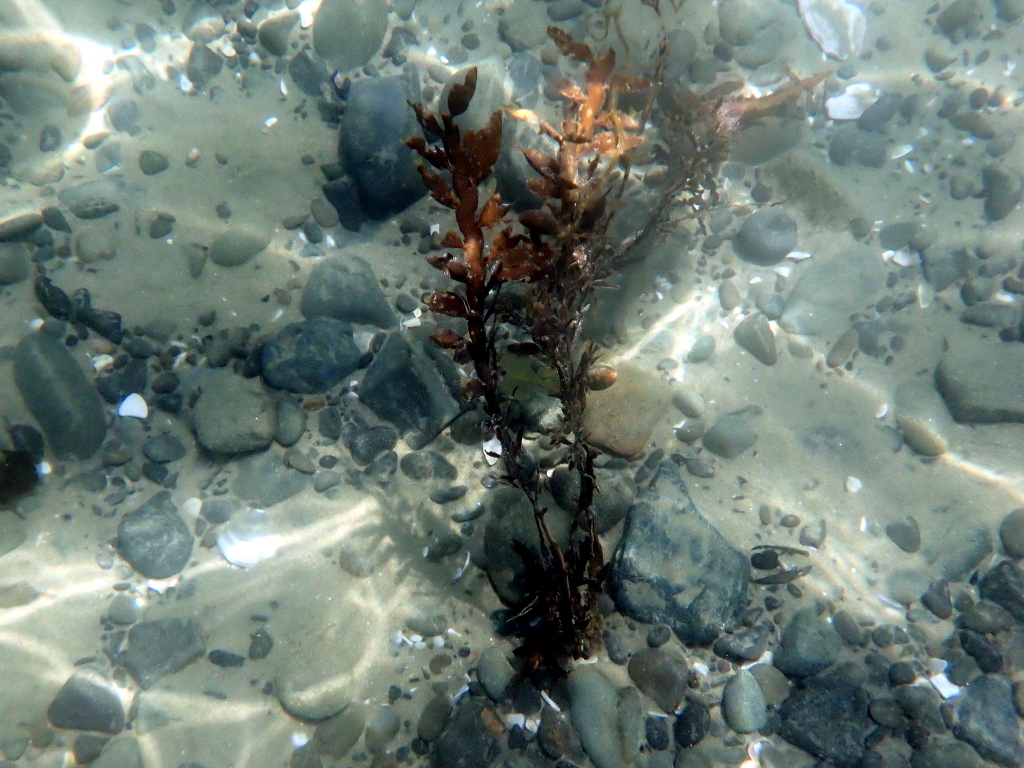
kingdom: Chromista
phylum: Ochrophyta
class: Phaeophyceae
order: Fucales
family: Sargassaceae
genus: Carpophyllum
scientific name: Carpophyllum maschalocarpum
